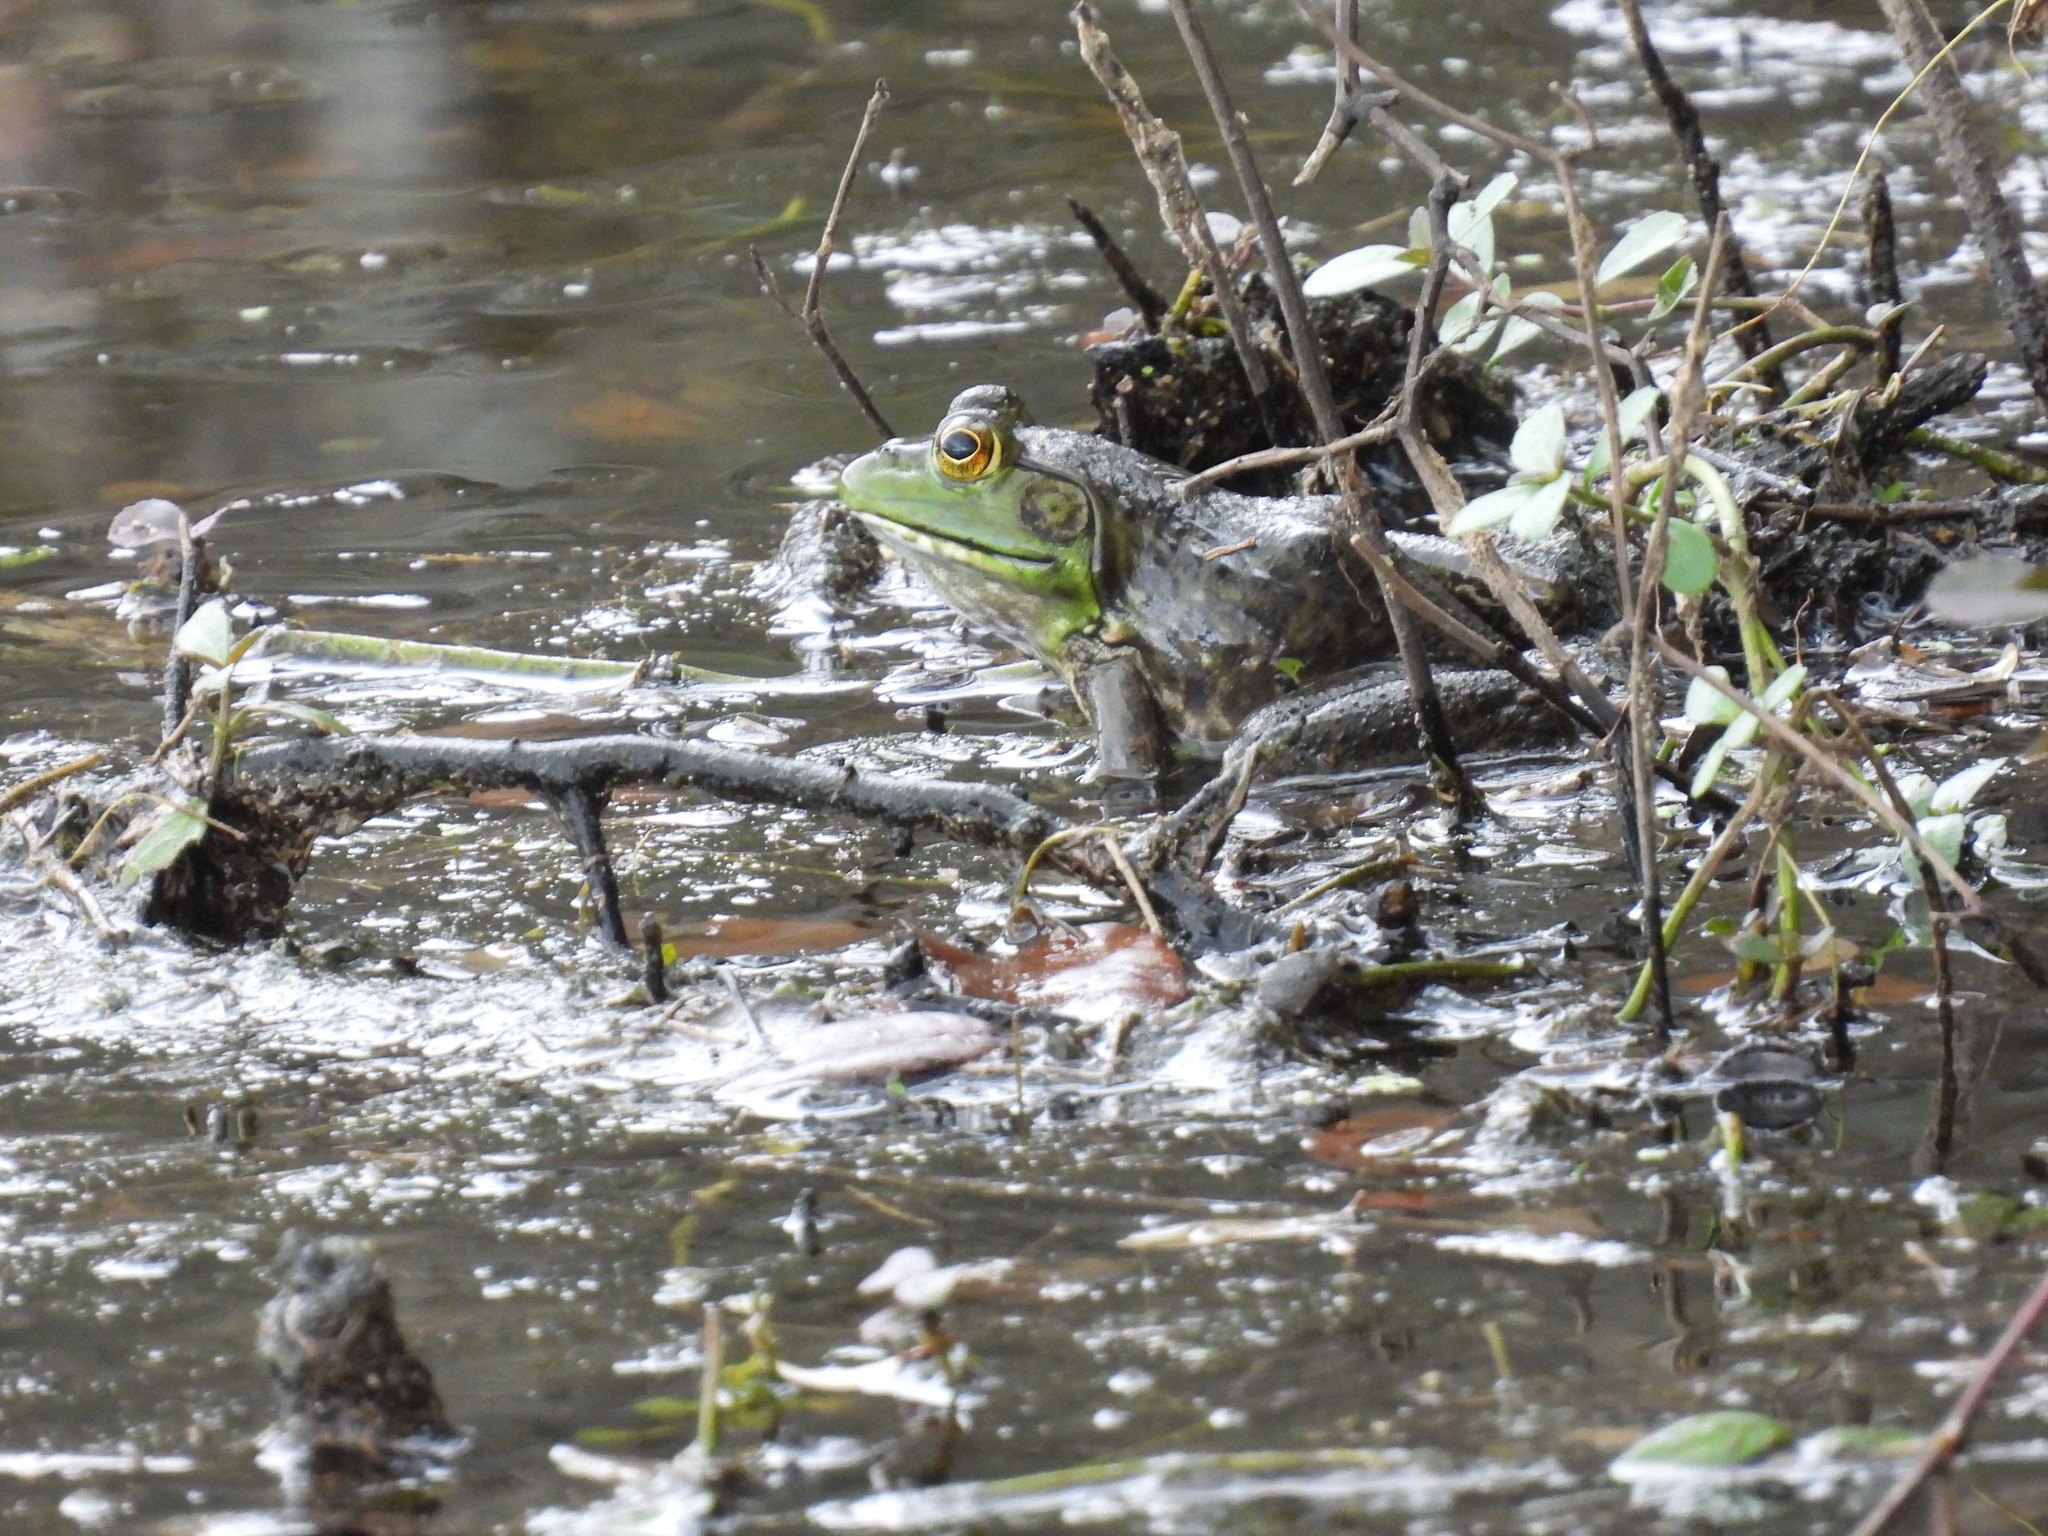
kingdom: Animalia
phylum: Chordata
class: Amphibia
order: Anura
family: Ranidae
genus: Lithobates
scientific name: Lithobates catesbeianus
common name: American bullfrog
